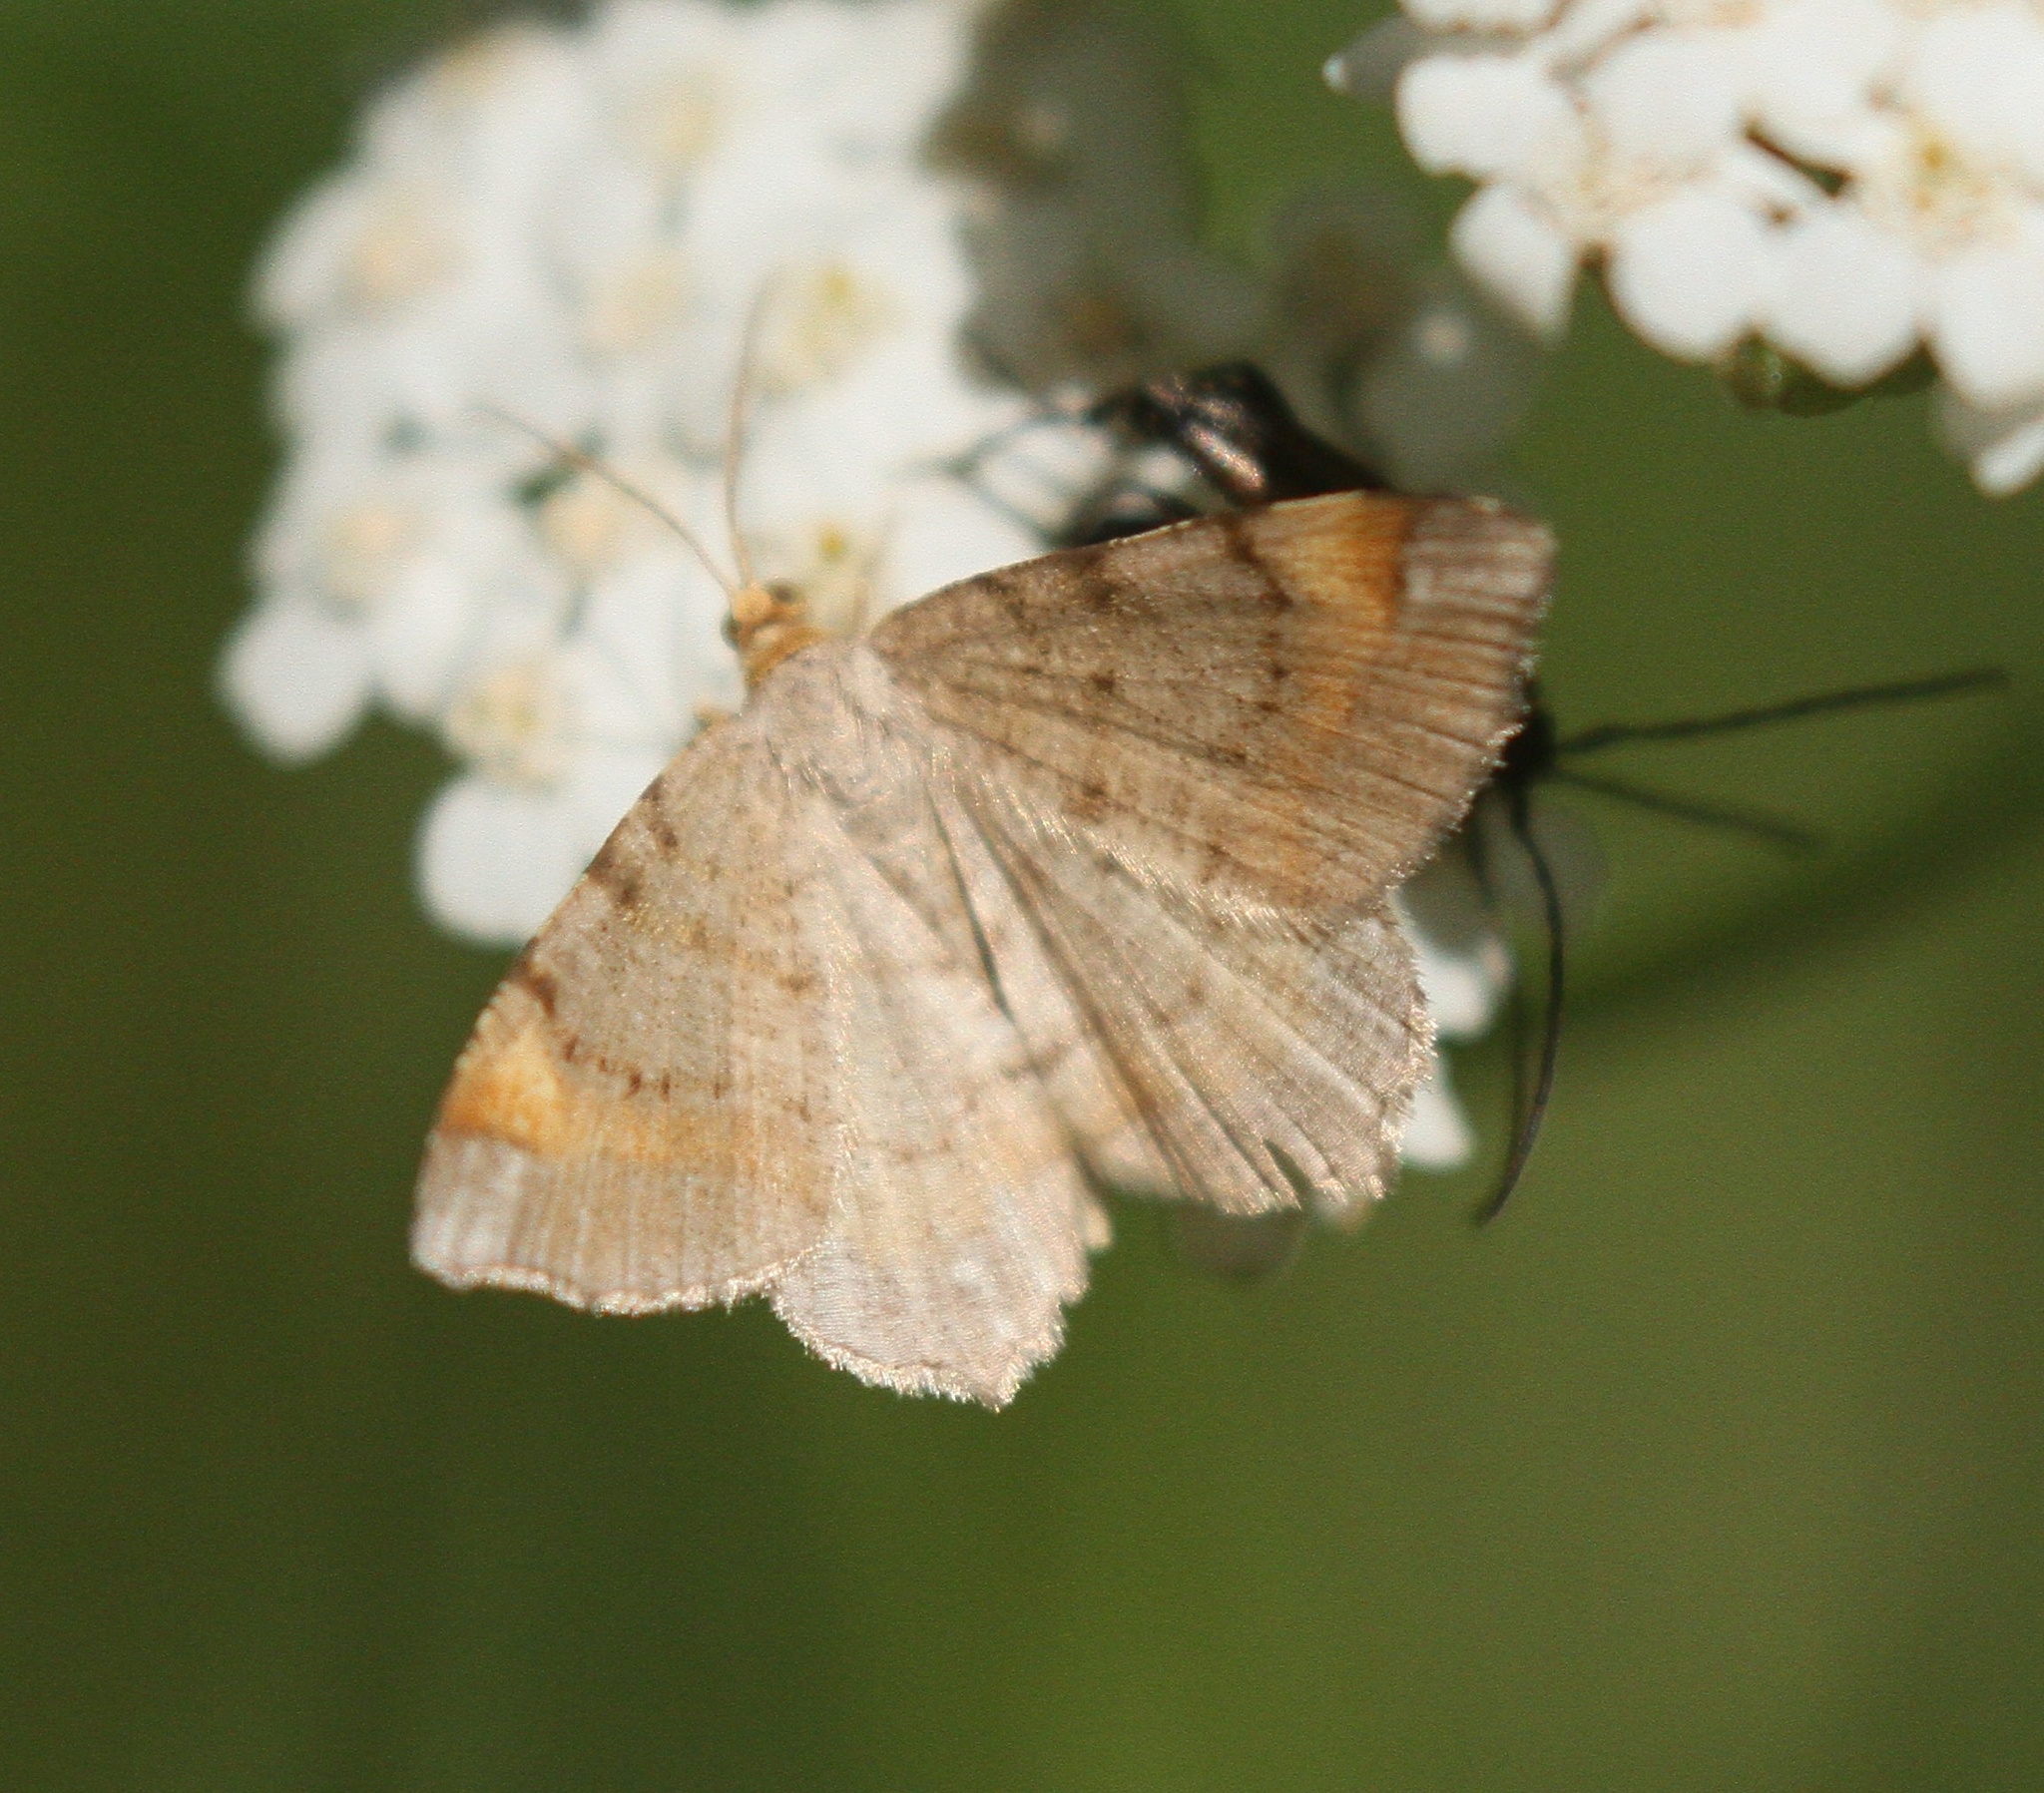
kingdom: Animalia
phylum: Arthropoda
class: Insecta
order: Lepidoptera
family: Geometridae
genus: Macaria
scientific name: Macaria liturata
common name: Tawny-barred angle
